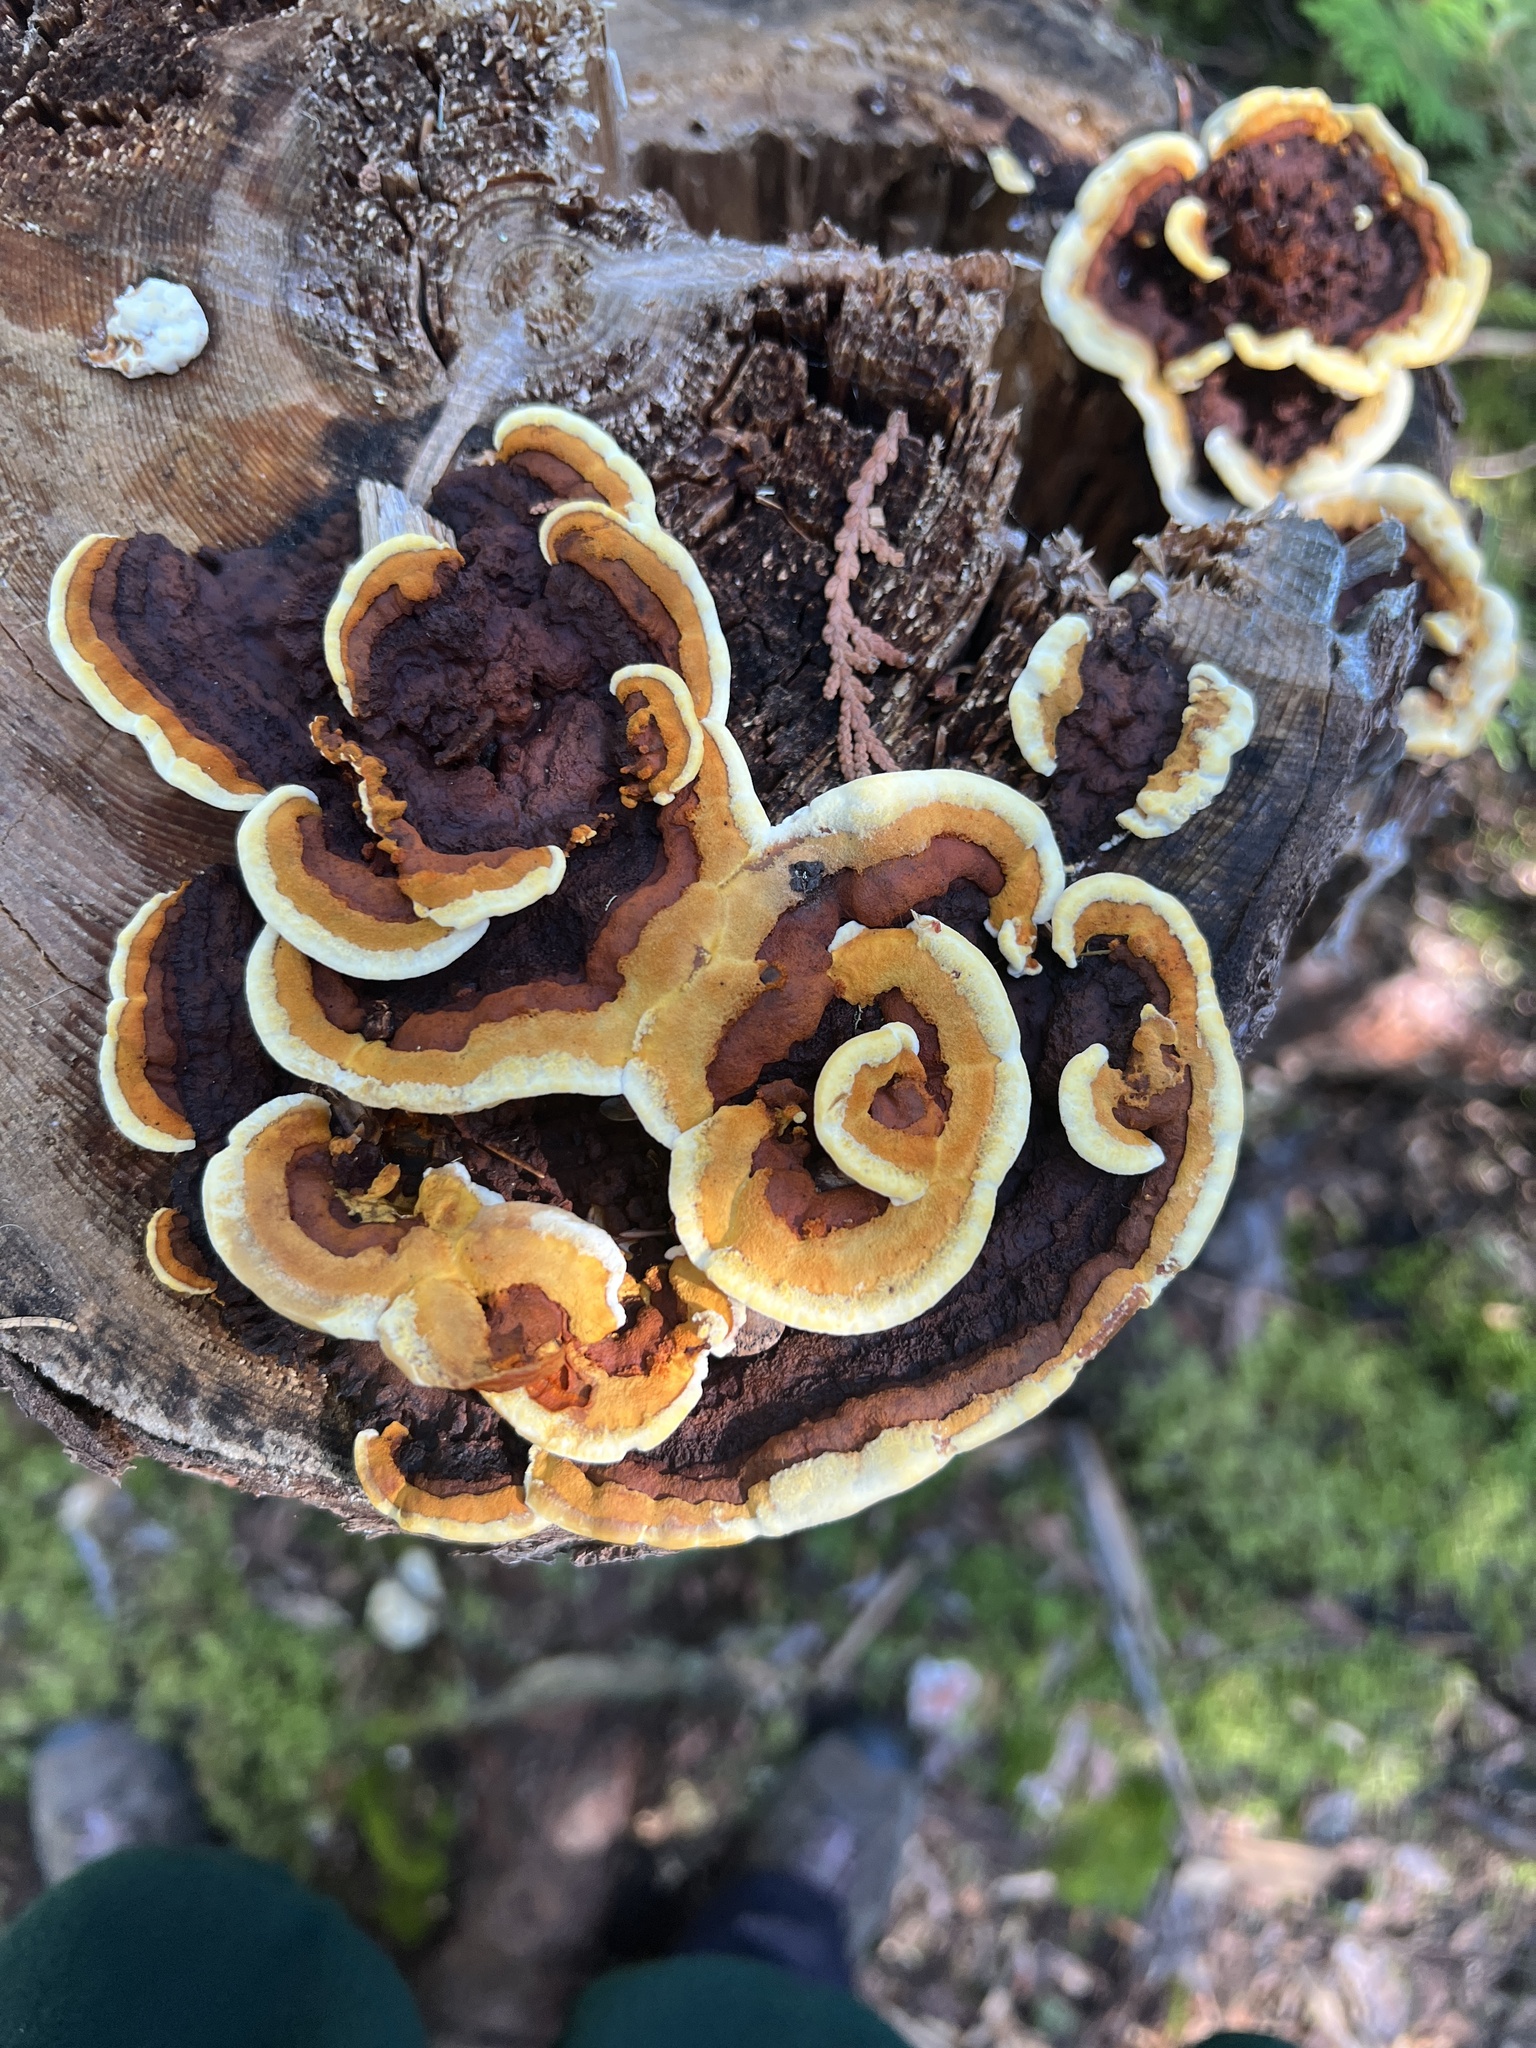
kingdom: Fungi
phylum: Basidiomycota
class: Agaricomycetes
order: Gloeophyllales
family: Gloeophyllaceae
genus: Gloeophyllum
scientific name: Gloeophyllum sepiarium
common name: Conifer mazegill
